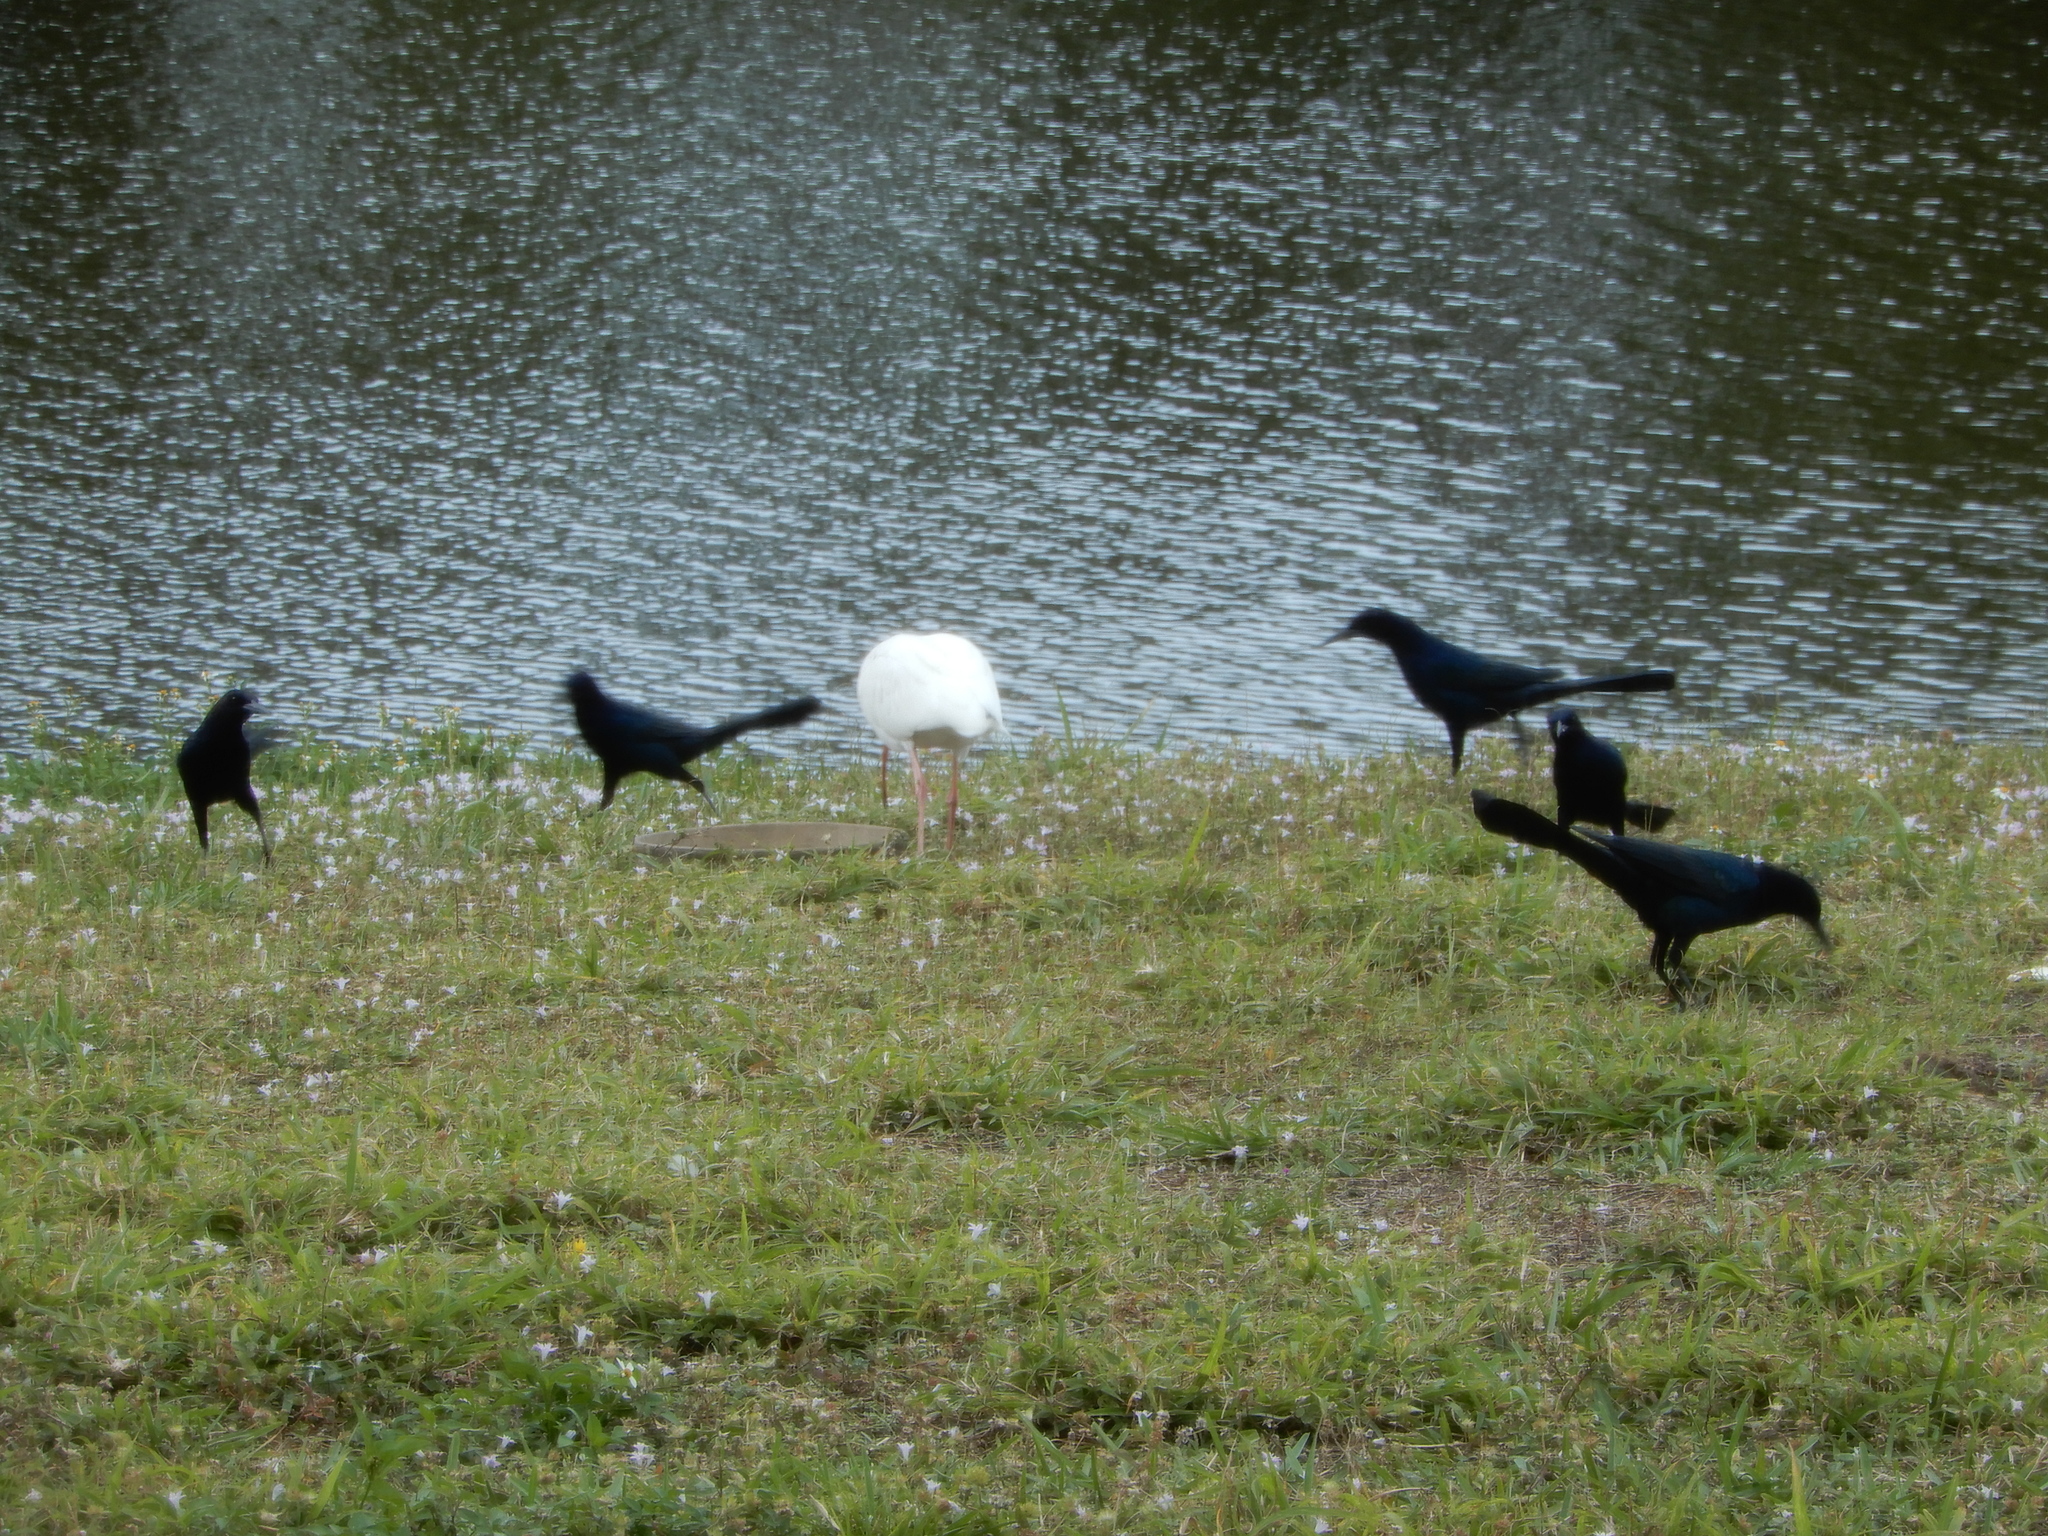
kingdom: Animalia
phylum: Chordata
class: Aves
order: Pelecaniformes
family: Threskiornithidae
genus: Eudocimus
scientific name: Eudocimus albus
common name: White ibis
